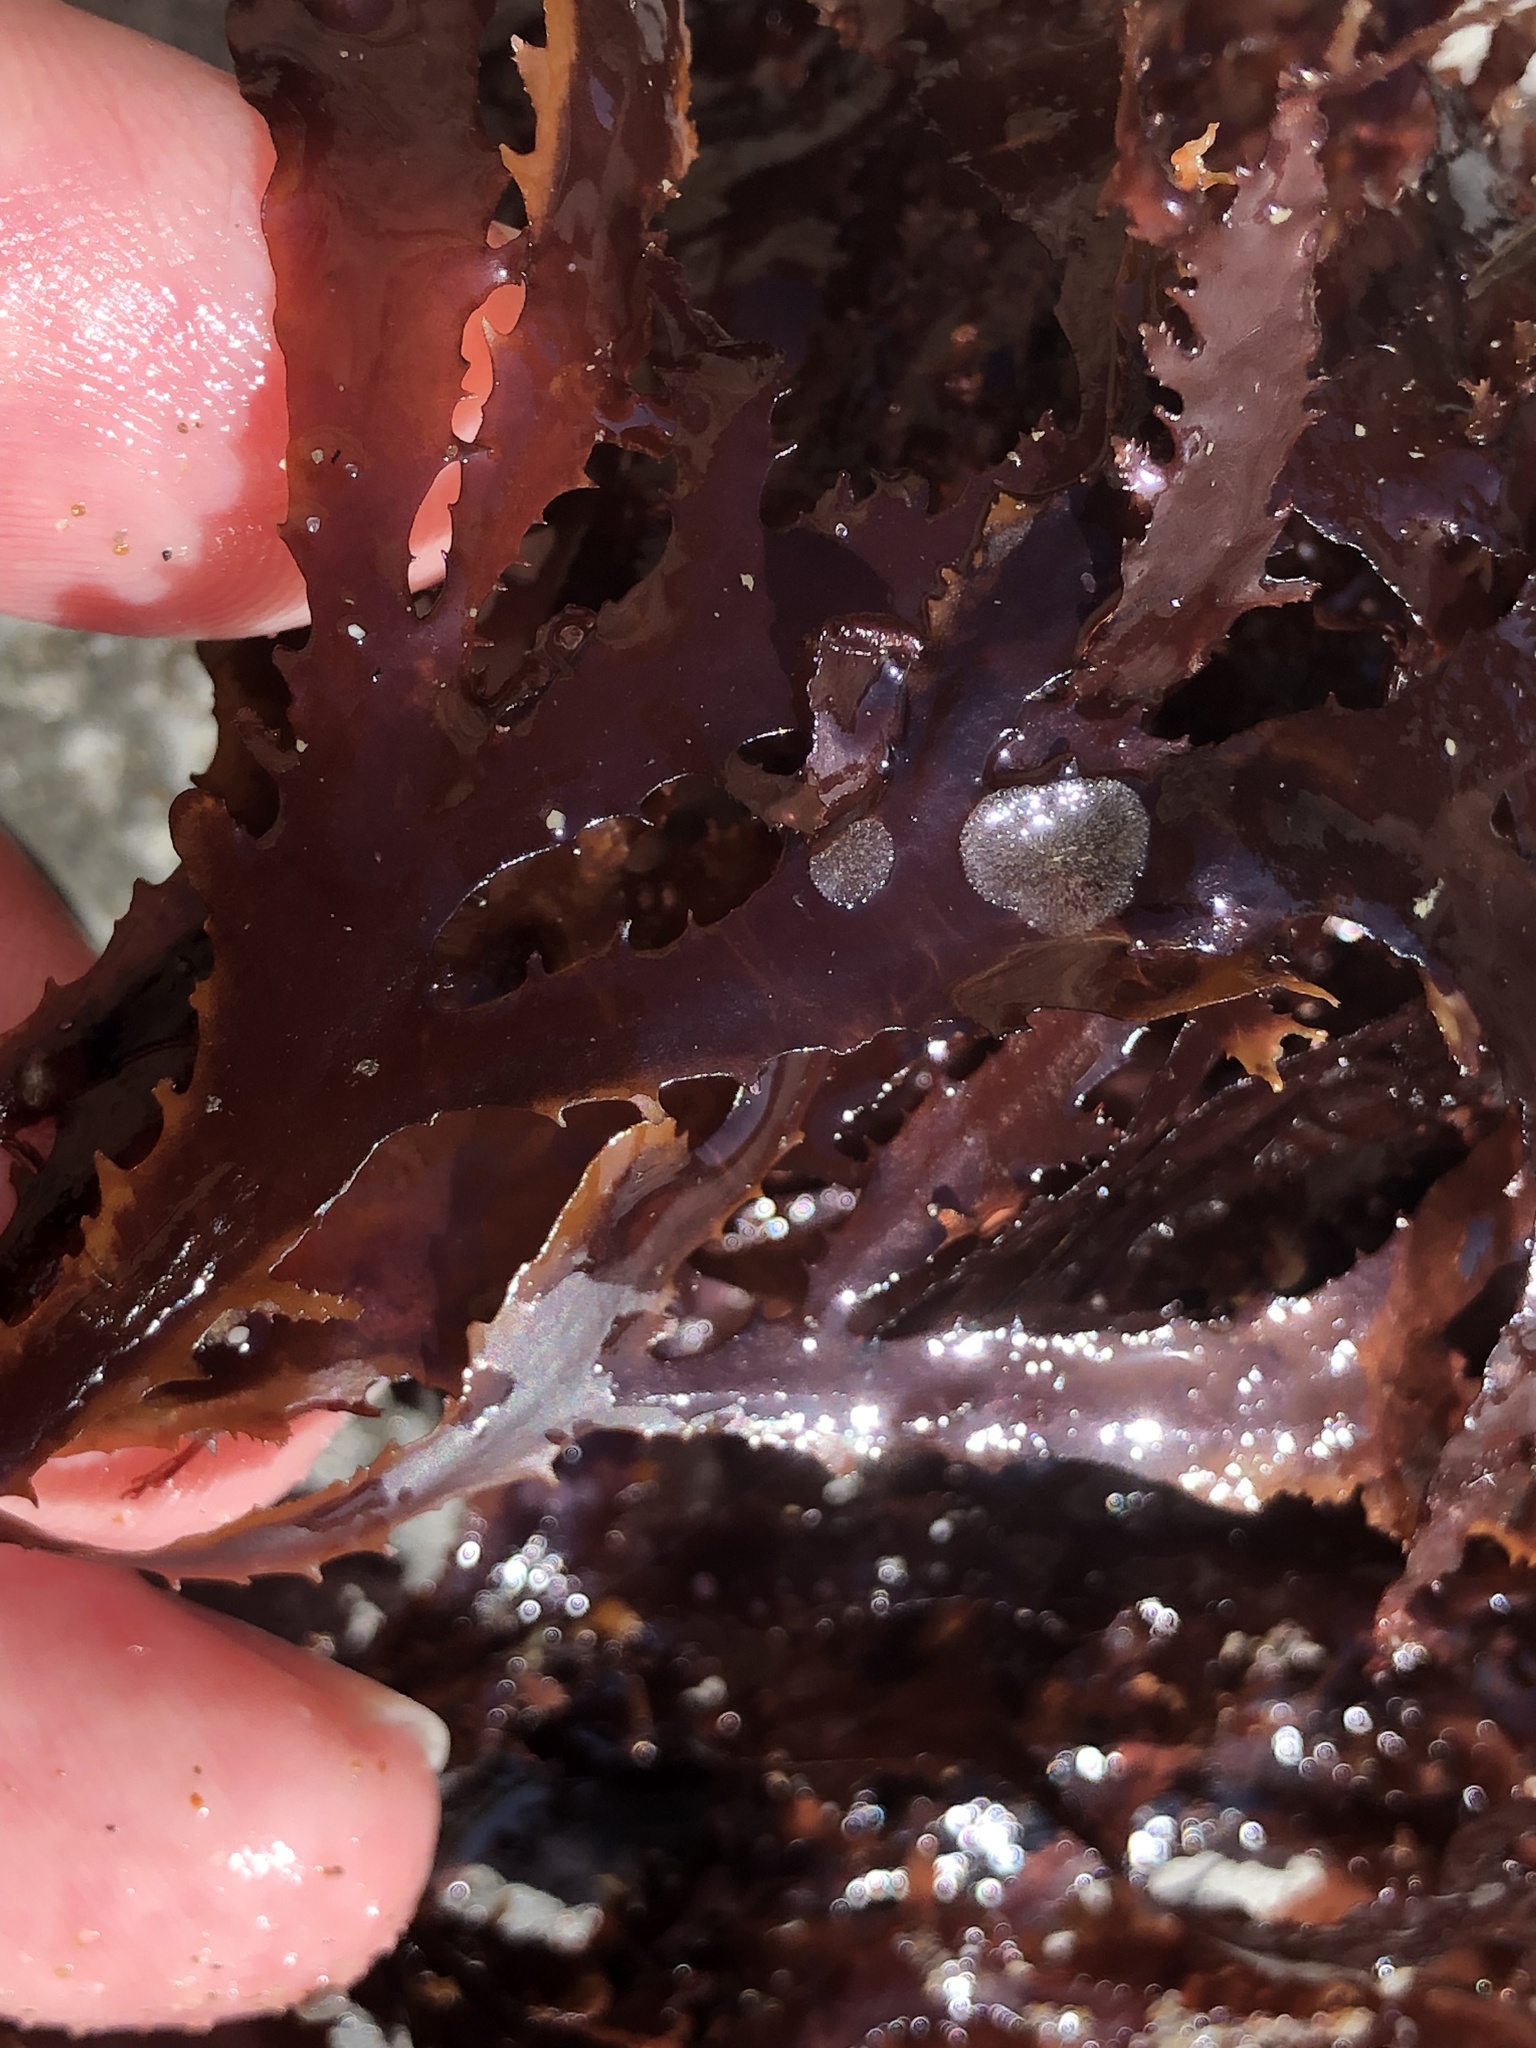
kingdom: Plantae
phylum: Rhodophyta
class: Florideophyceae
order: Ceramiales
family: Delesseriaceae
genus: Nienburgia
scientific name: Nienburgia andersoniana
